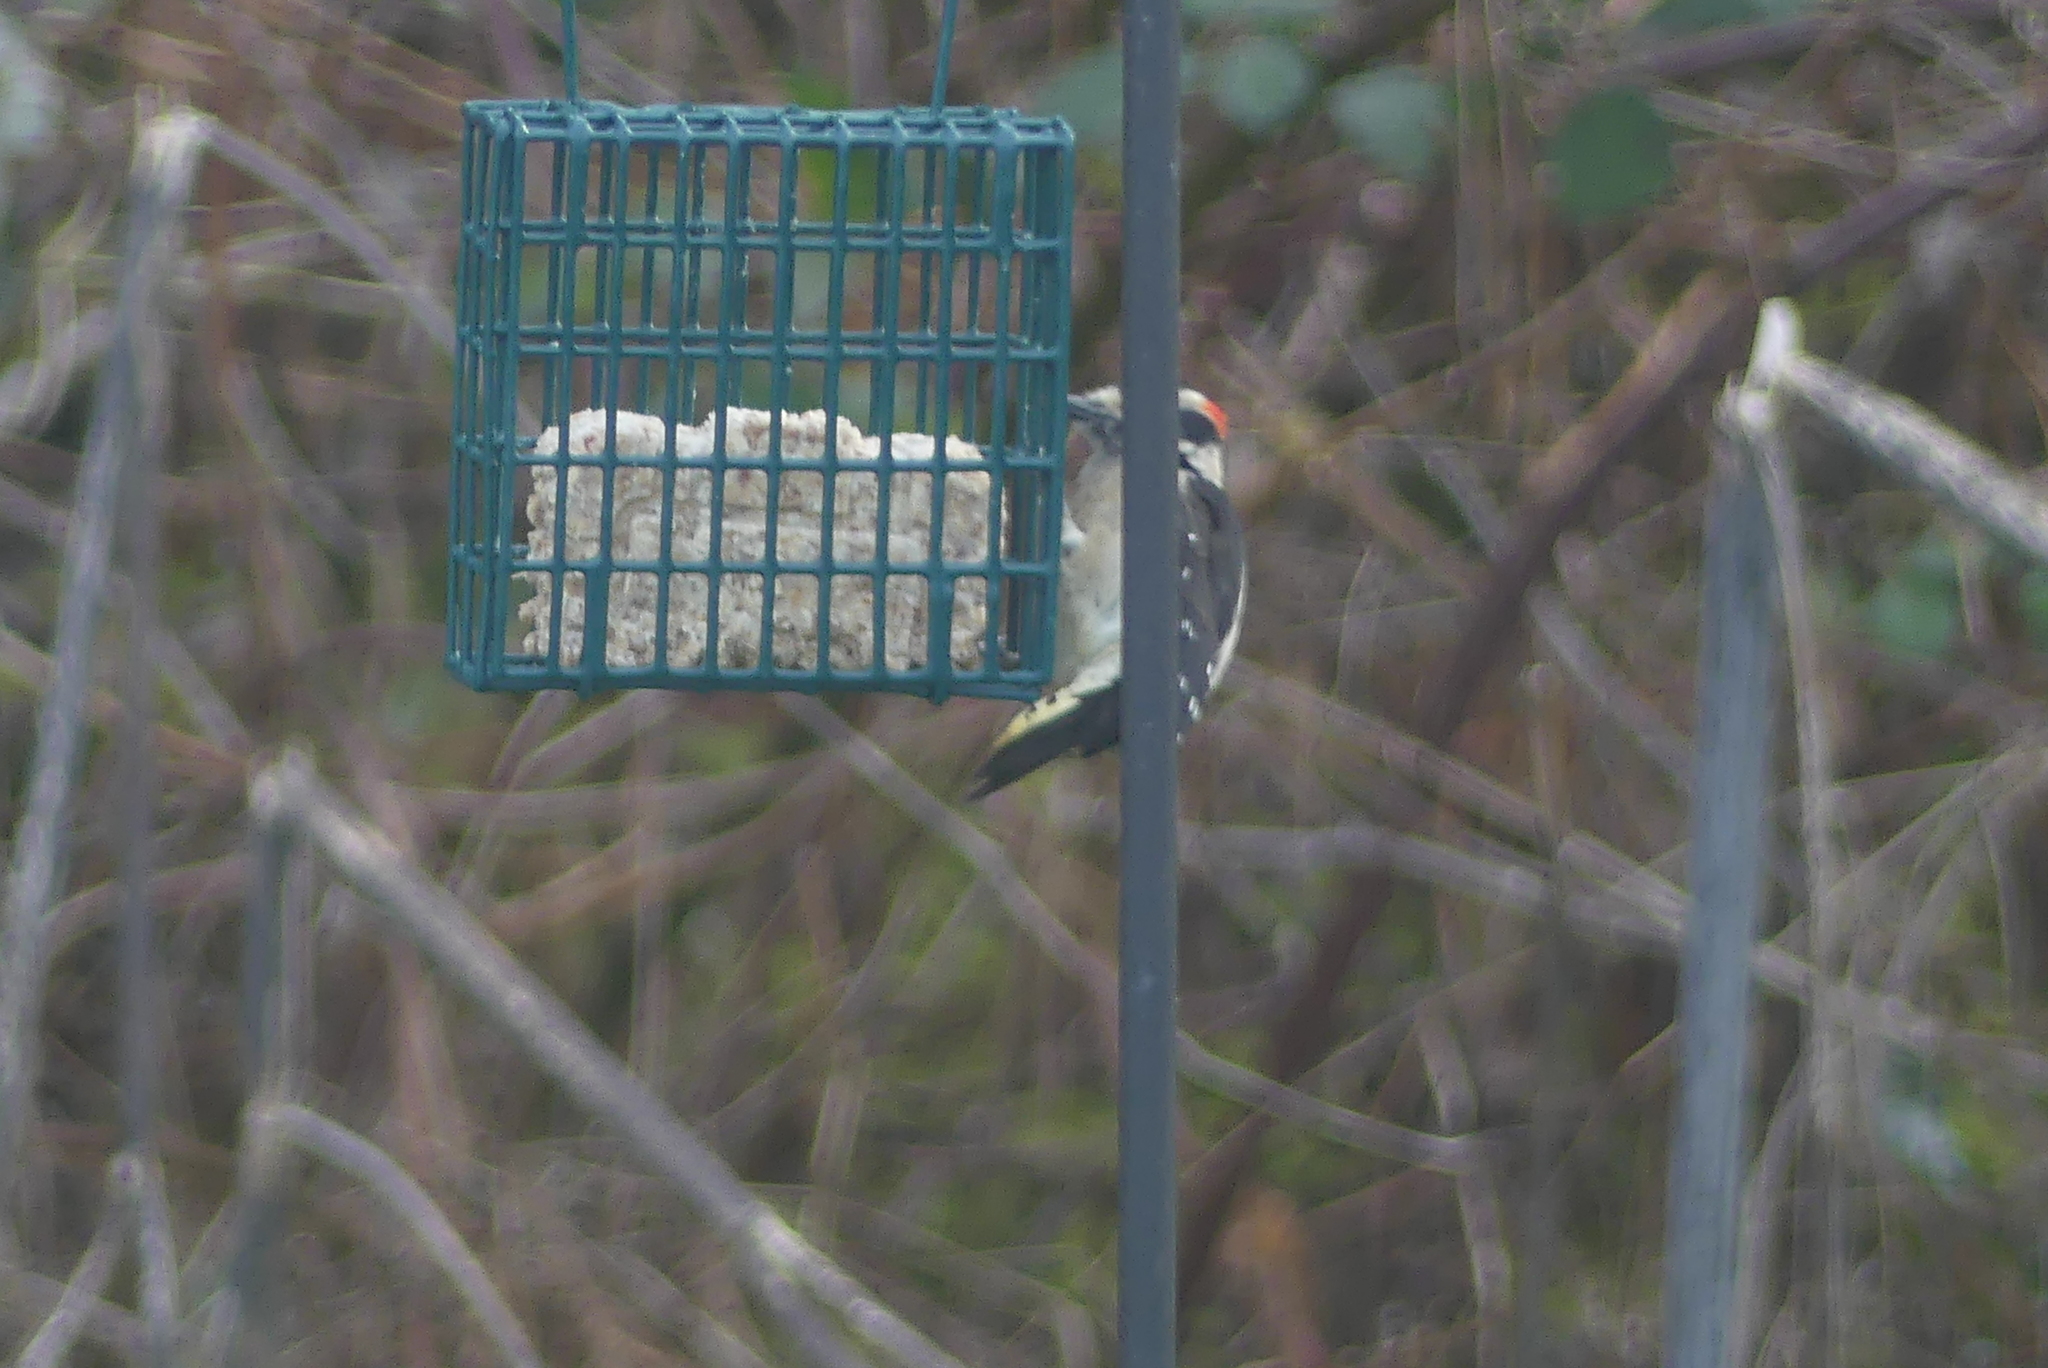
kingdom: Animalia
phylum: Chordata
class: Aves
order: Piciformes
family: Picidae
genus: Dryobates
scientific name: Dryobates pubescens
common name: Downy woodpecker
